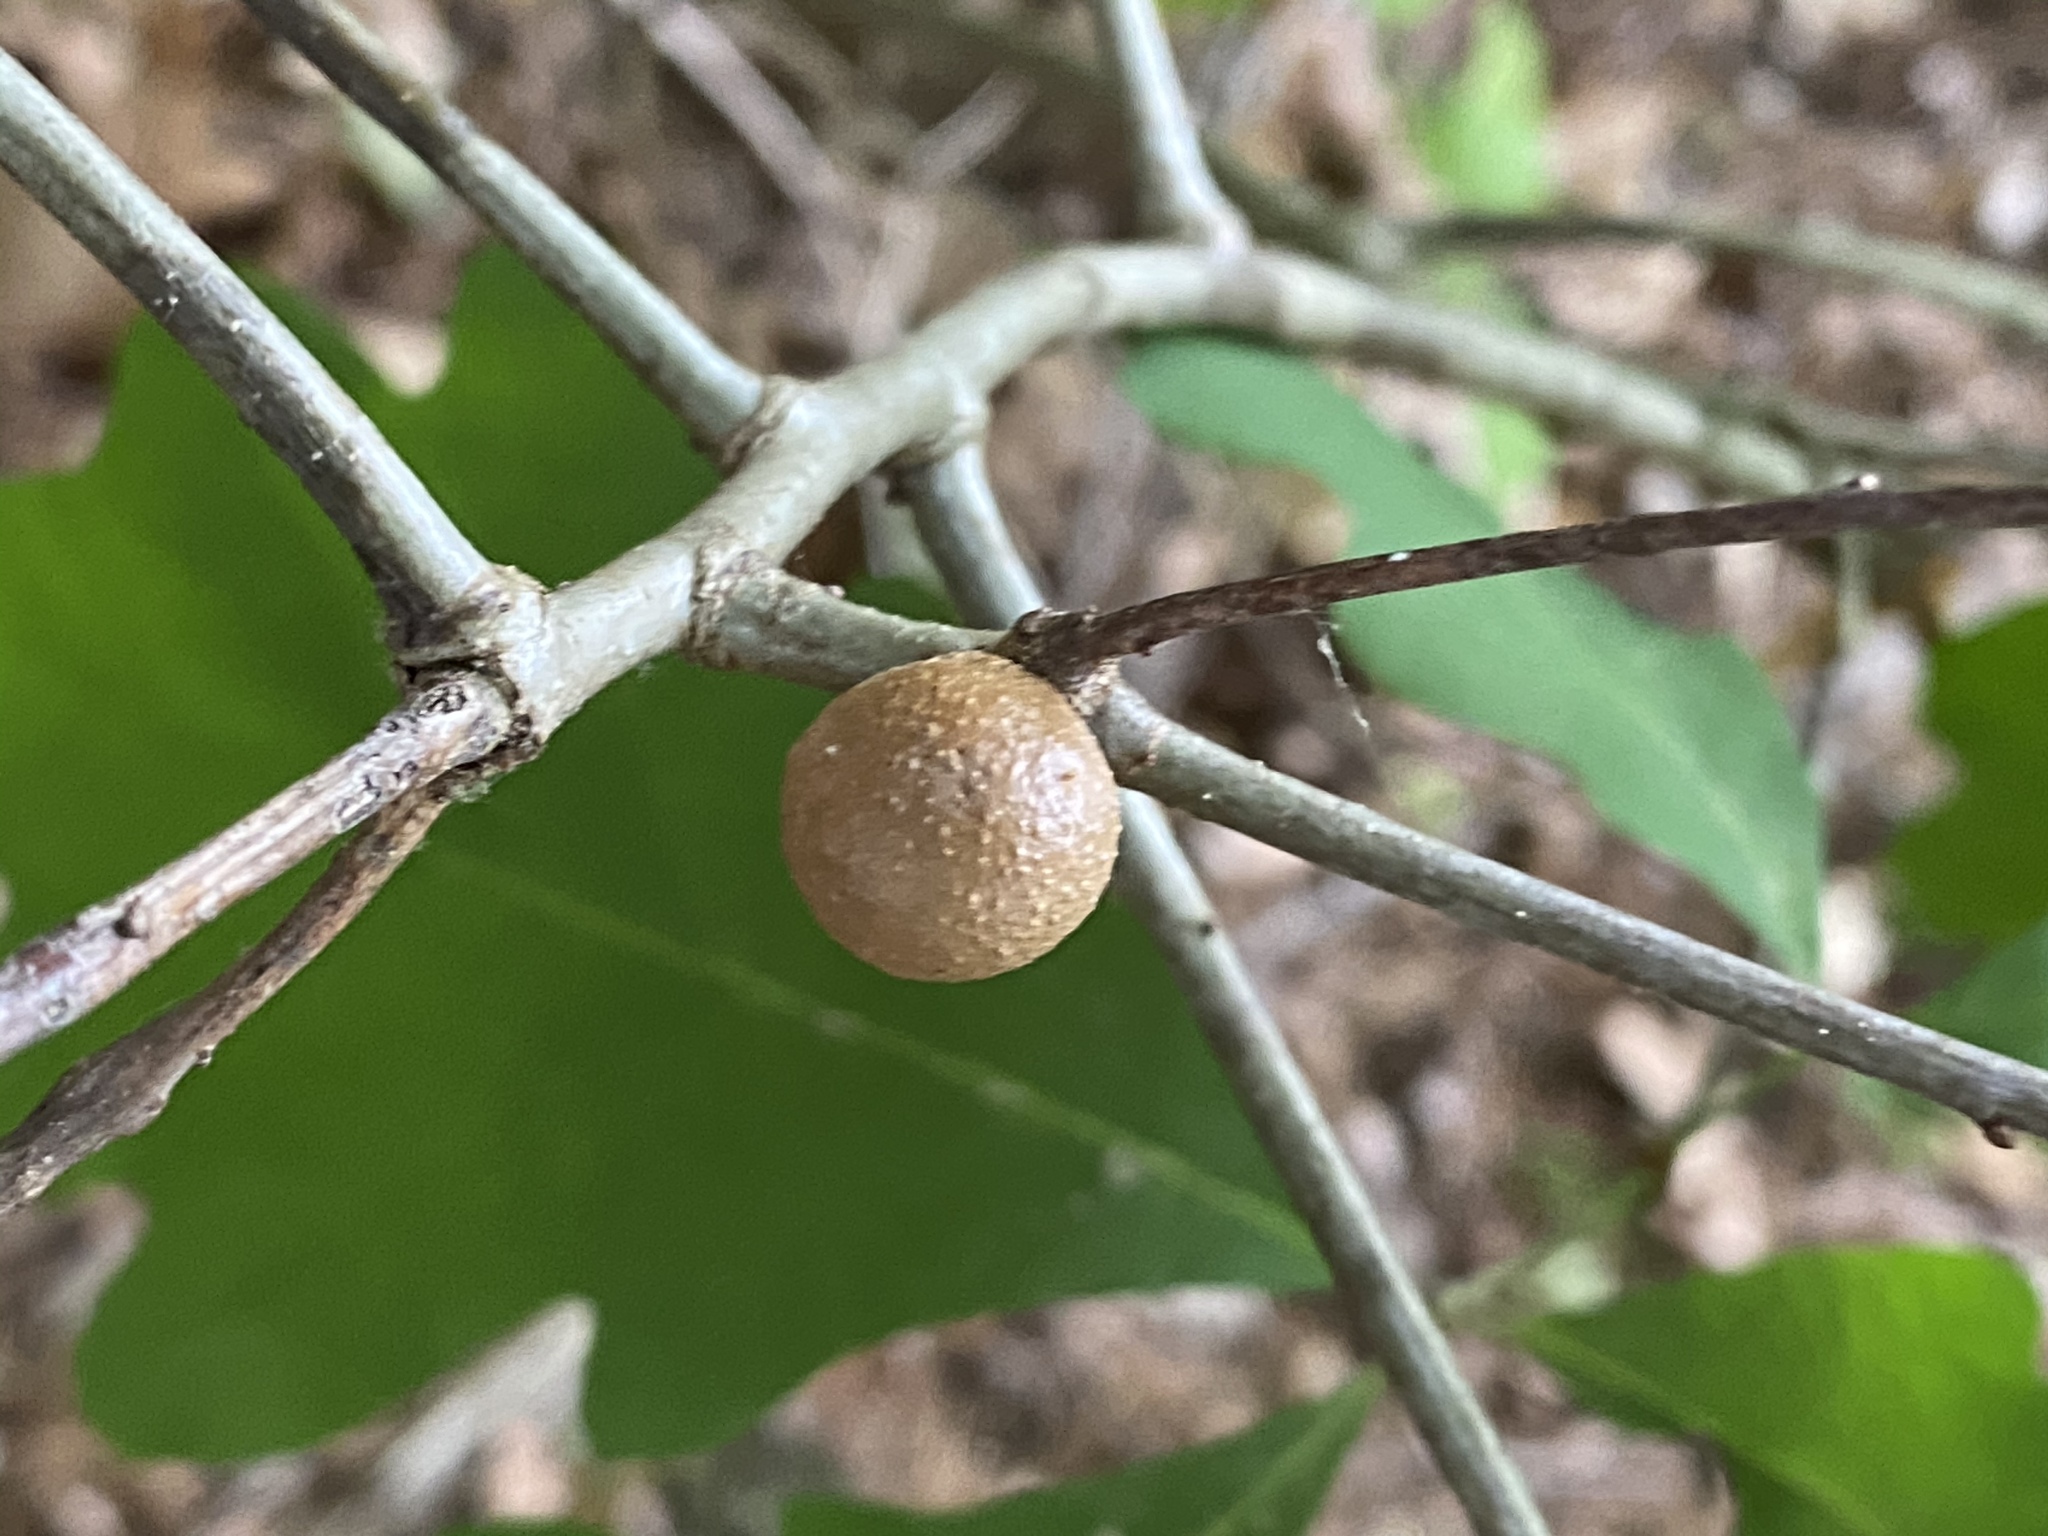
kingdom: Animalia
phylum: Arthropoda
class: Insecta
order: Hymenoptera
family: Cynipidae
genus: Disholcaspis
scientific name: Disholcaspis quercusglobulus
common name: Round bullet gall wasp
